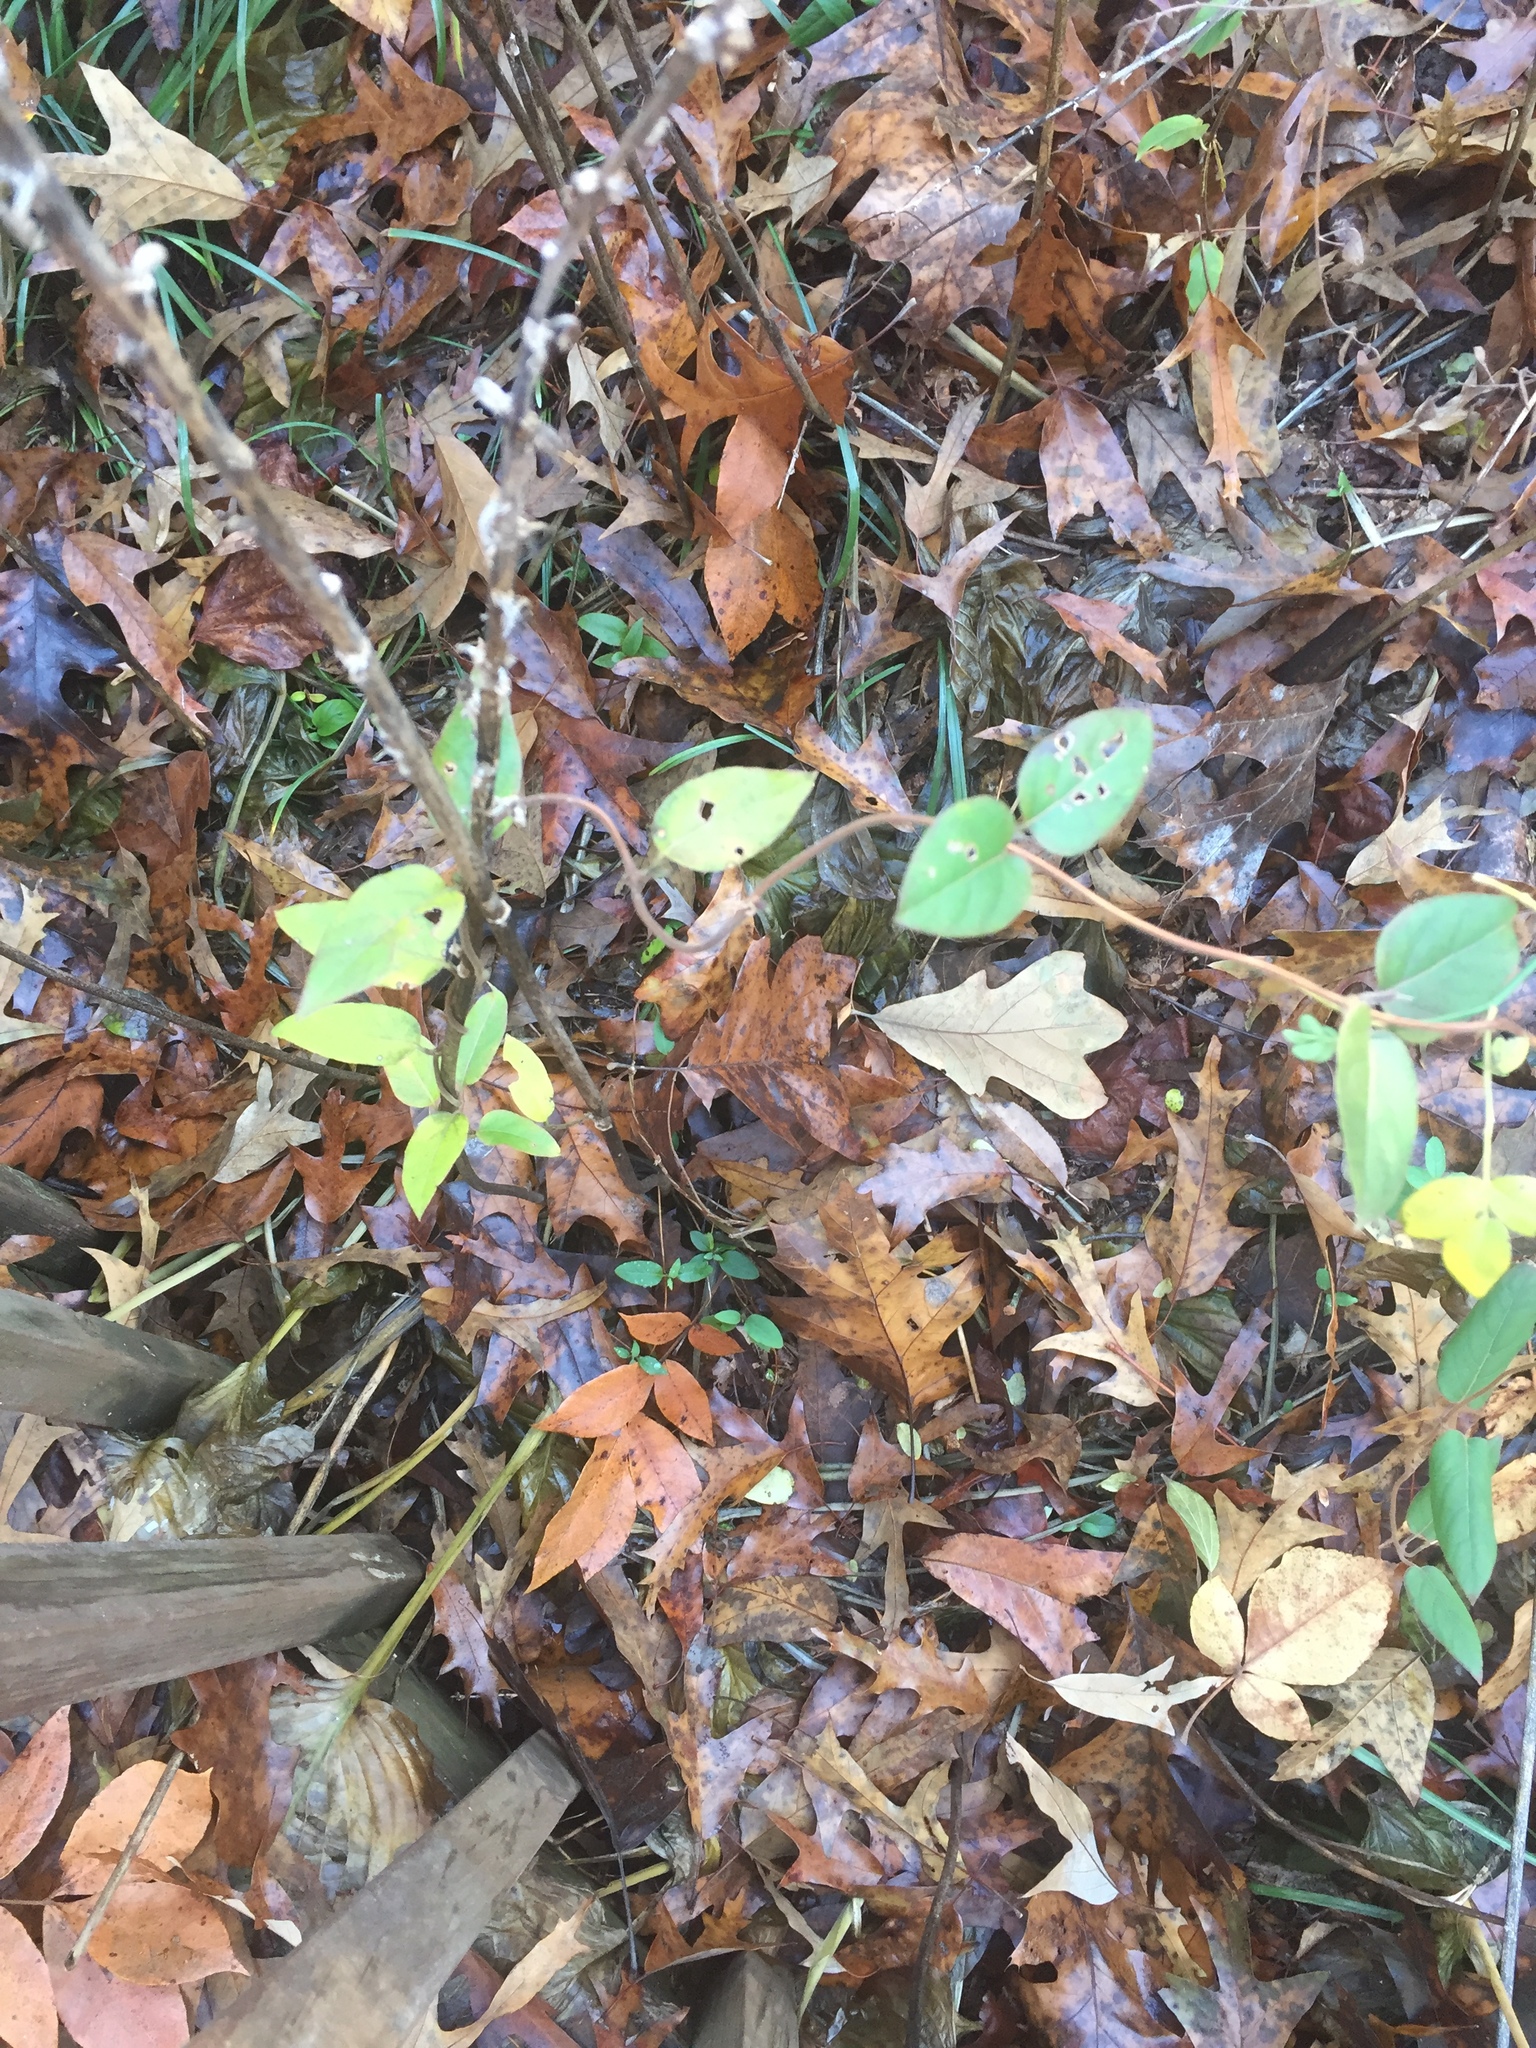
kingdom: Plantae
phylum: Tracheophyta
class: Magnoliopsida
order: Dipsacales
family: Caprifoliaceae
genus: Lonicera
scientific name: Lonicera japonica
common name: Japanese honeysuckle
